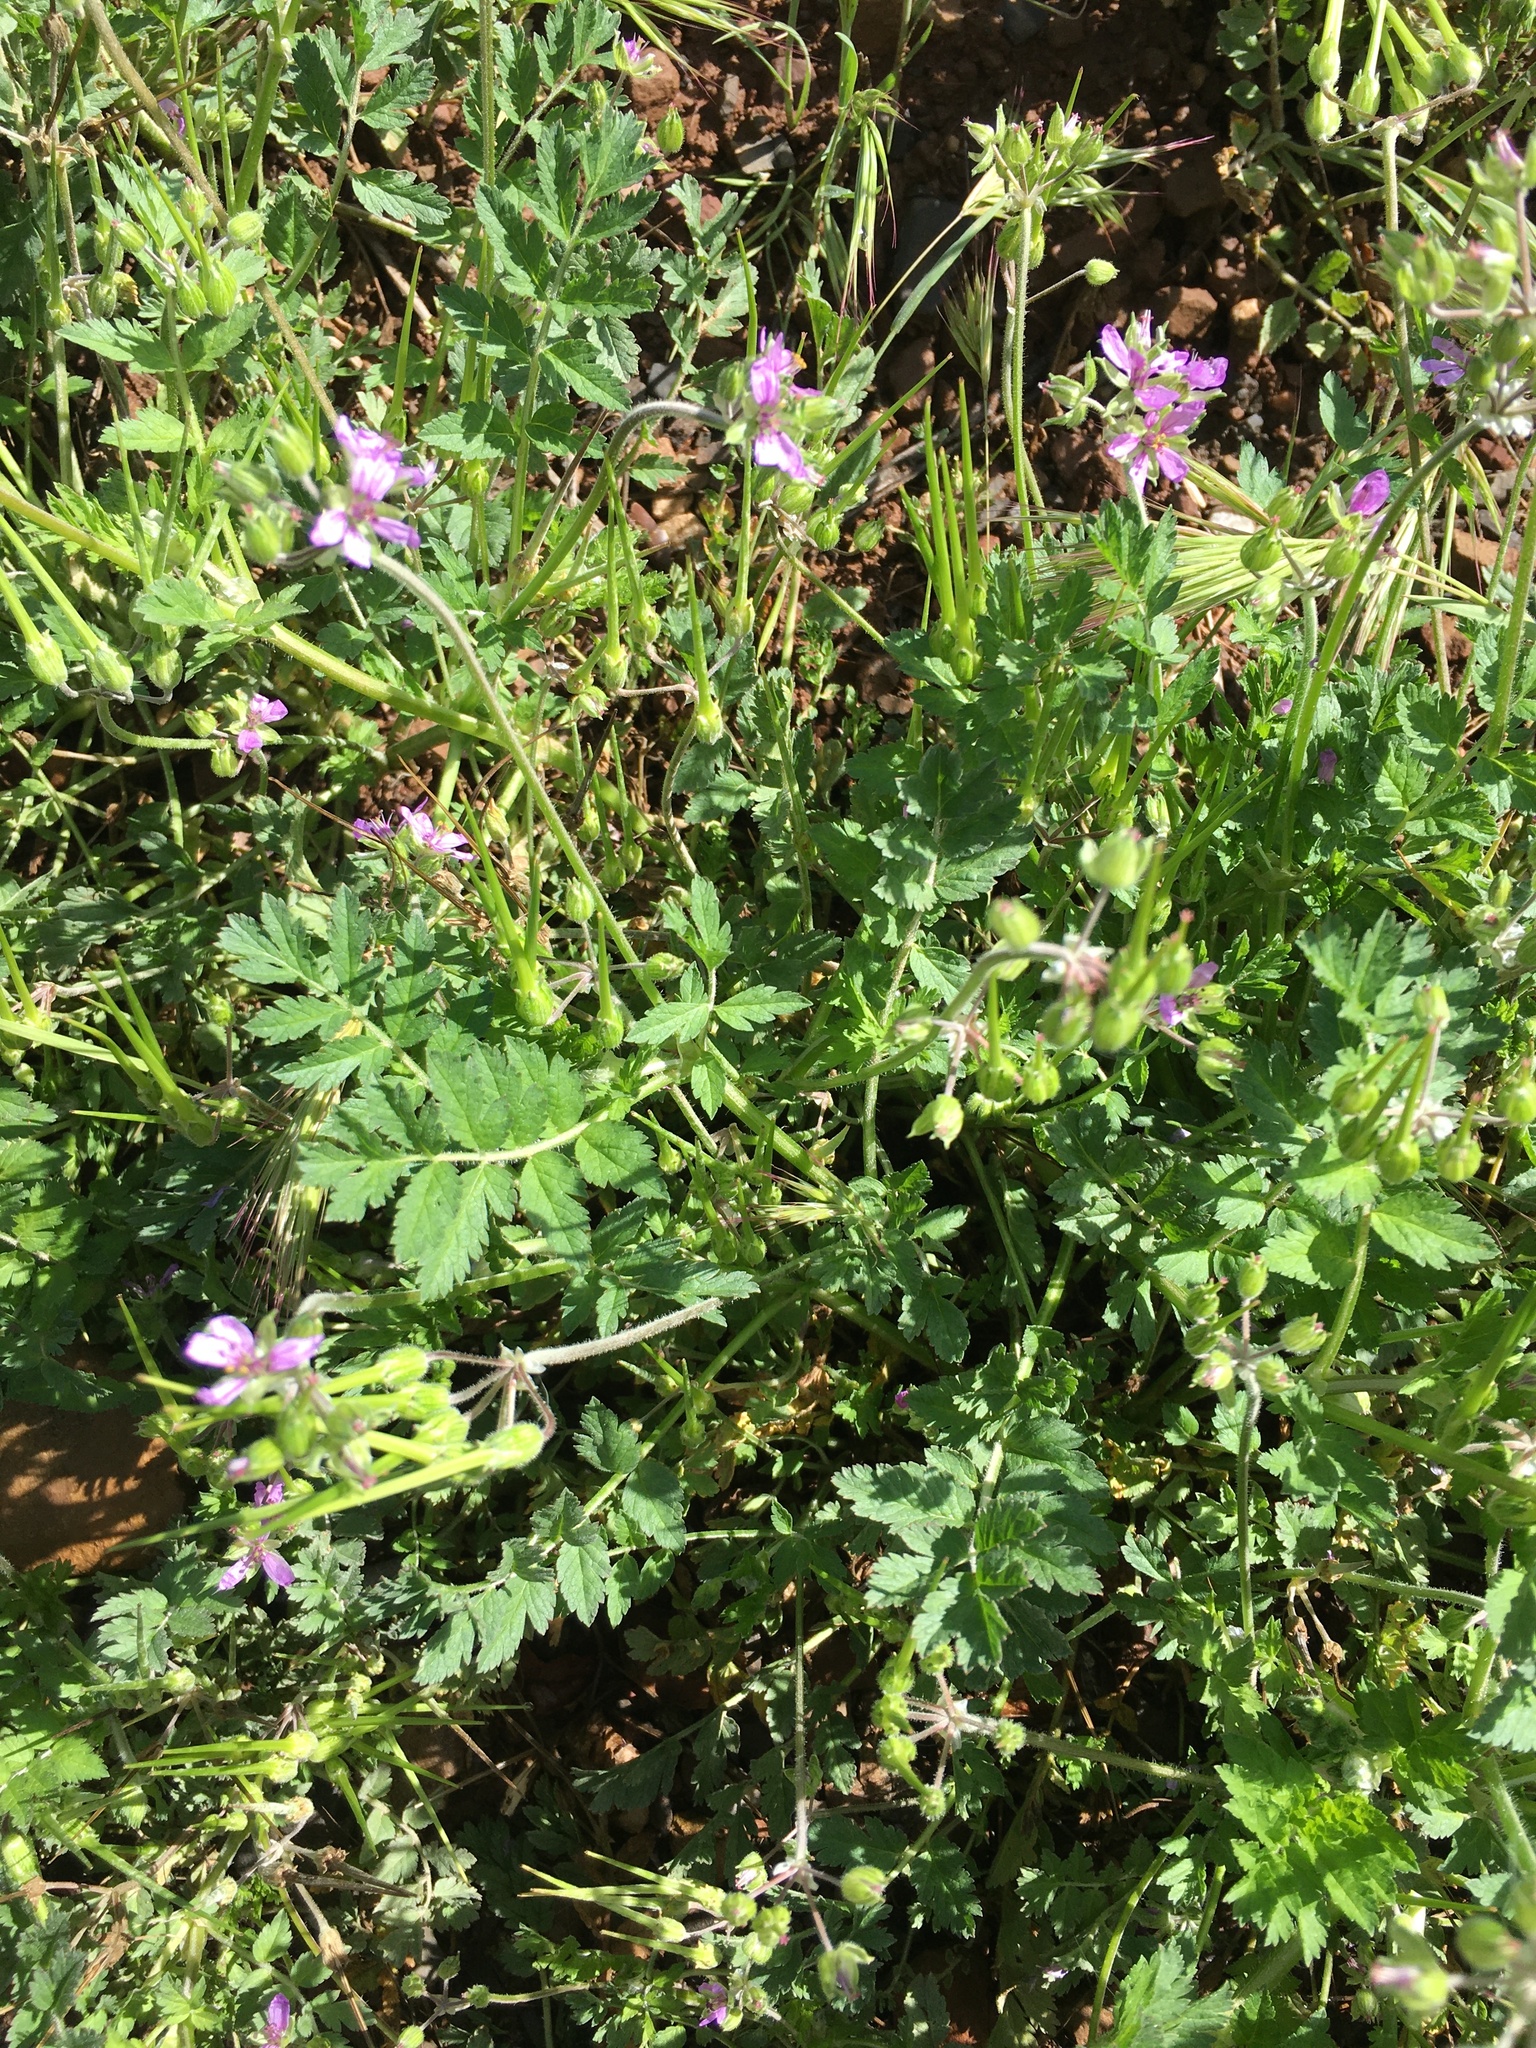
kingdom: Plantae
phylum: Tracheophyta
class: Magnoliopsida
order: Geraniales
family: Geraniaceae
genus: Erodium
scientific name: Erodium moschatum
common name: Musk stork's-bill
